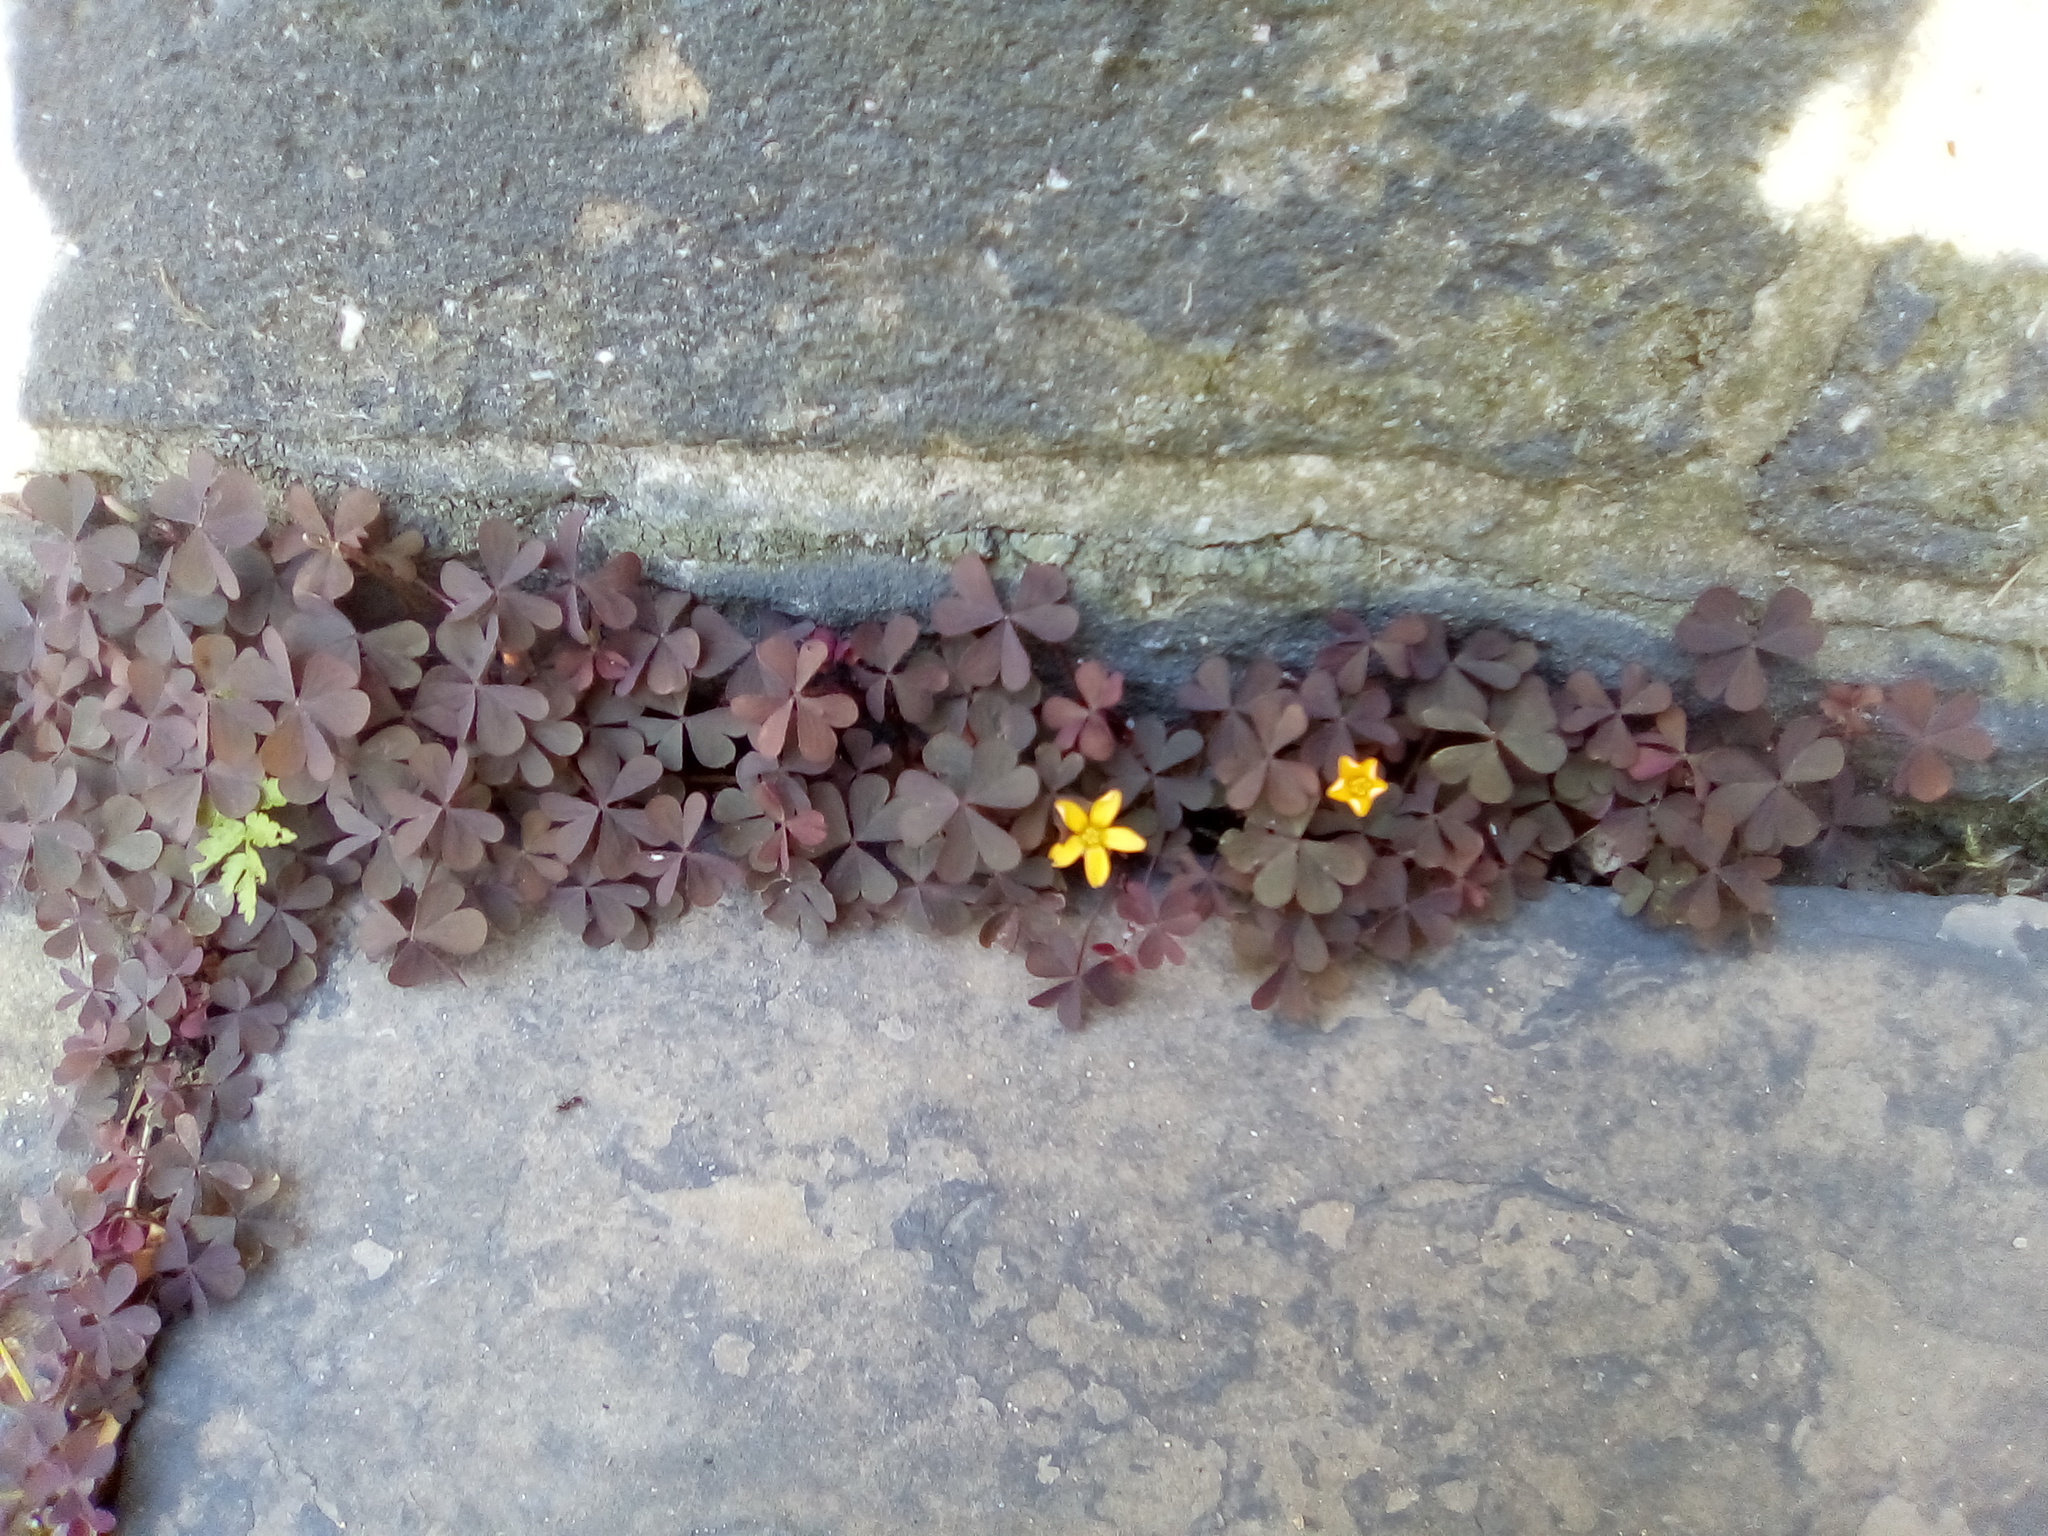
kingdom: Plantae
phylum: Tracheophyta
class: Magnoliopsida
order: Oxalidales
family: Oxalidaceae
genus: Oxalis
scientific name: Oxalis corniculata
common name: Procumbent yellow-sorrel
